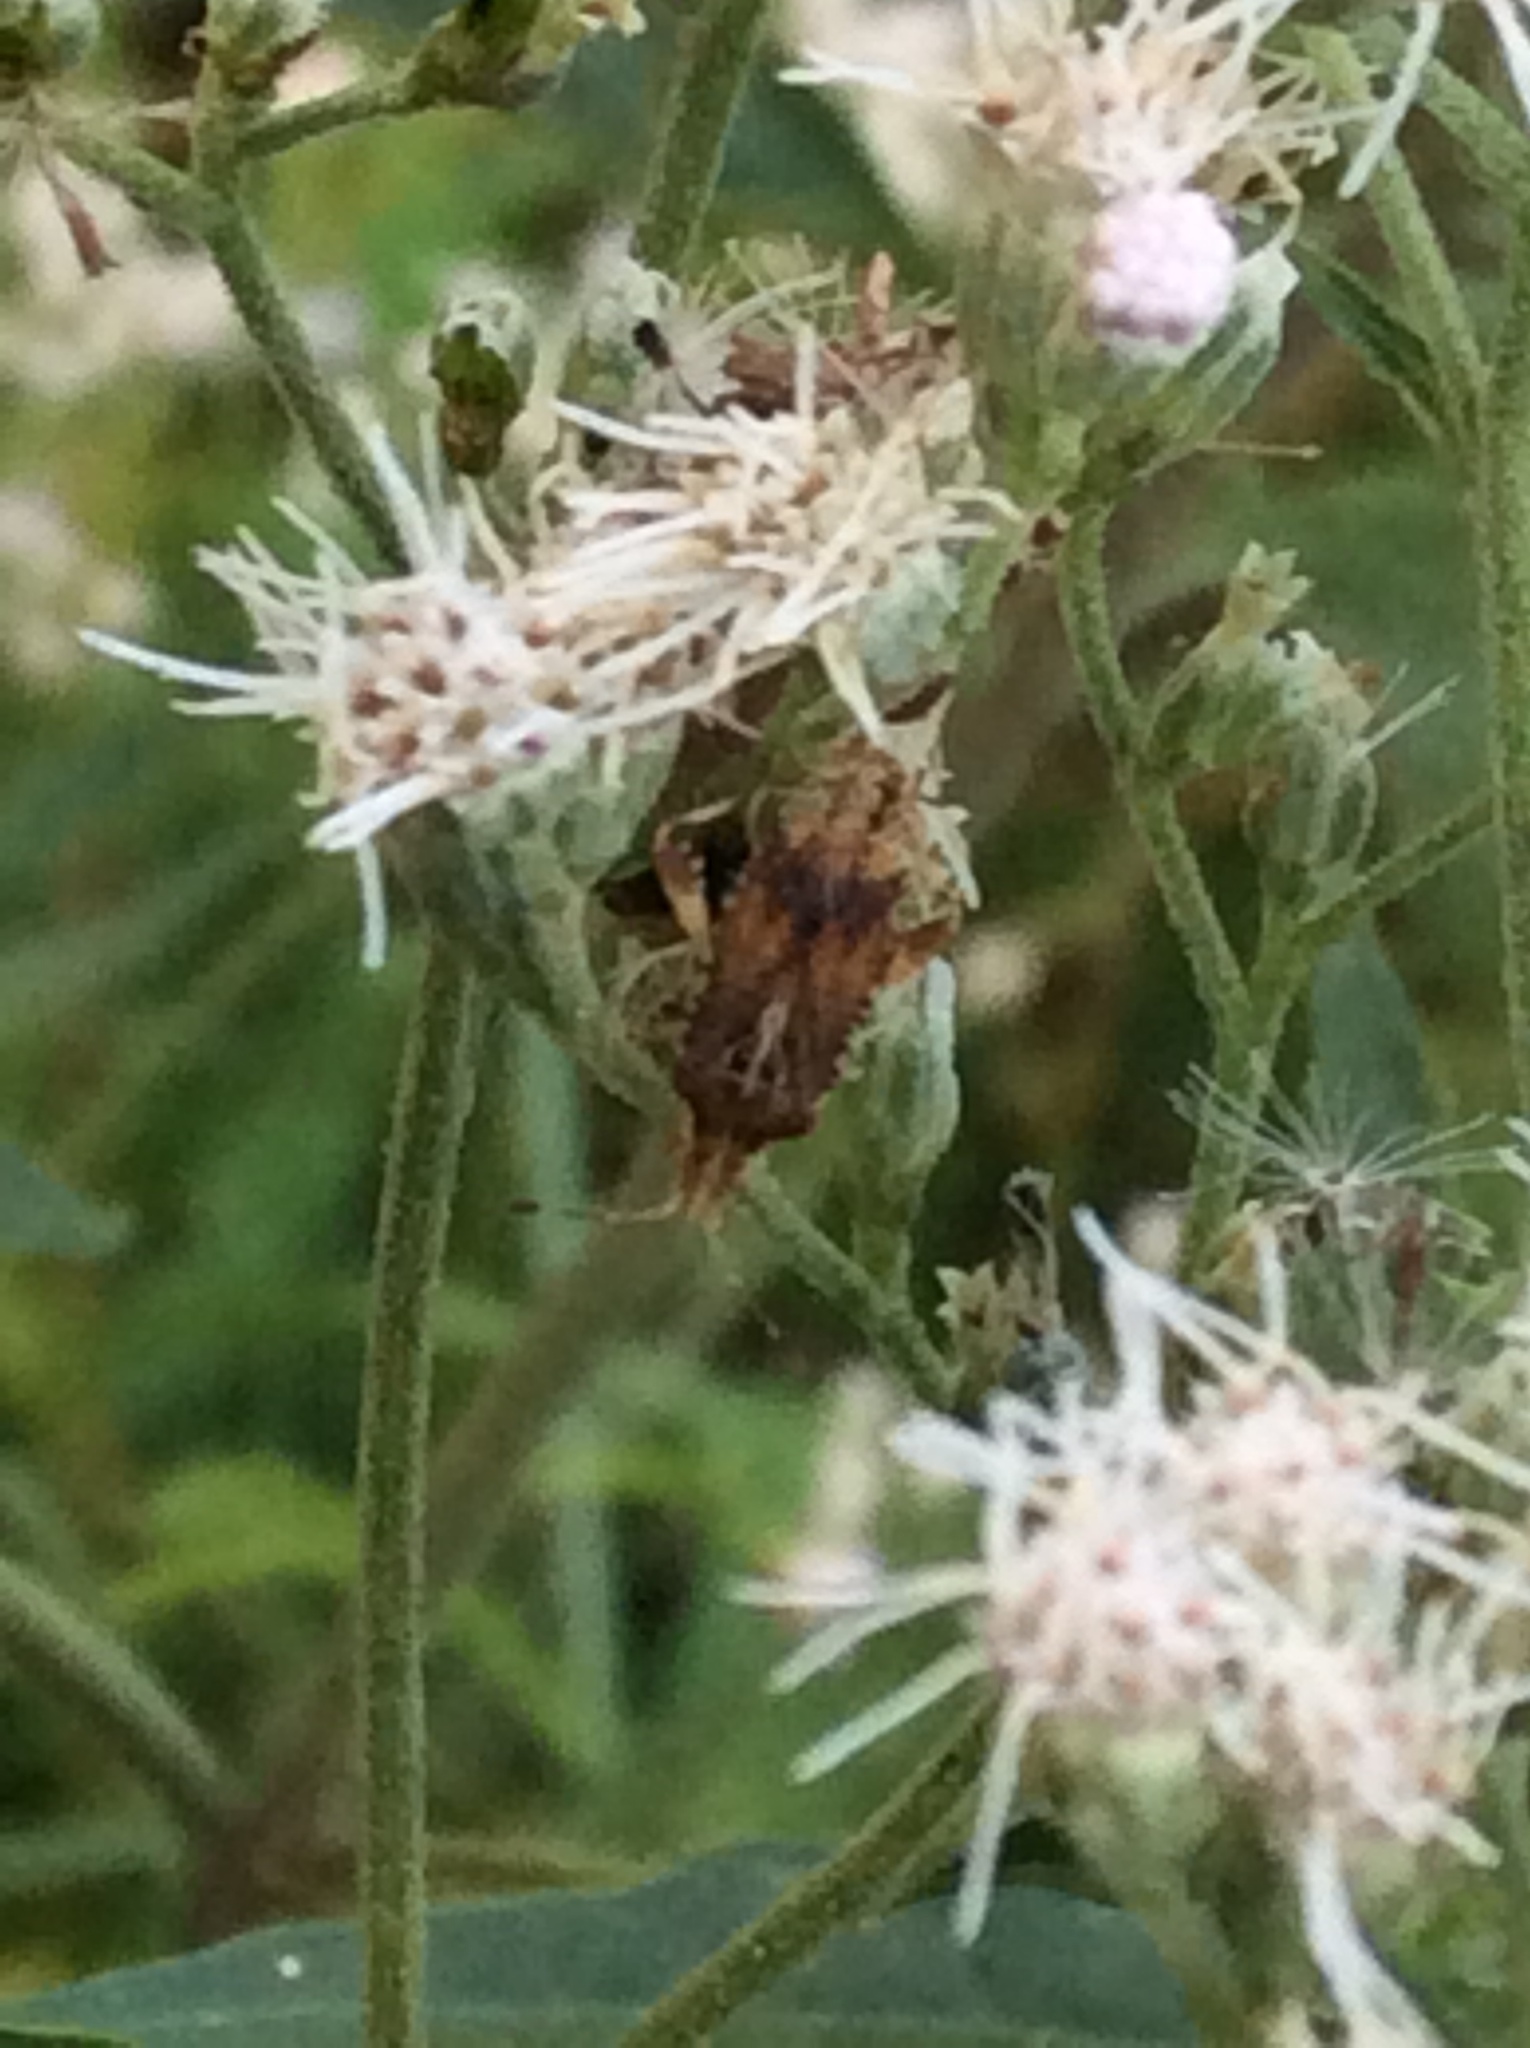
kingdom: Animalia
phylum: Arthropoda
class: Insecta
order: Hemiptera
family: Rhopalidae
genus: Harmostes
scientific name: Harmostes fraterculus
